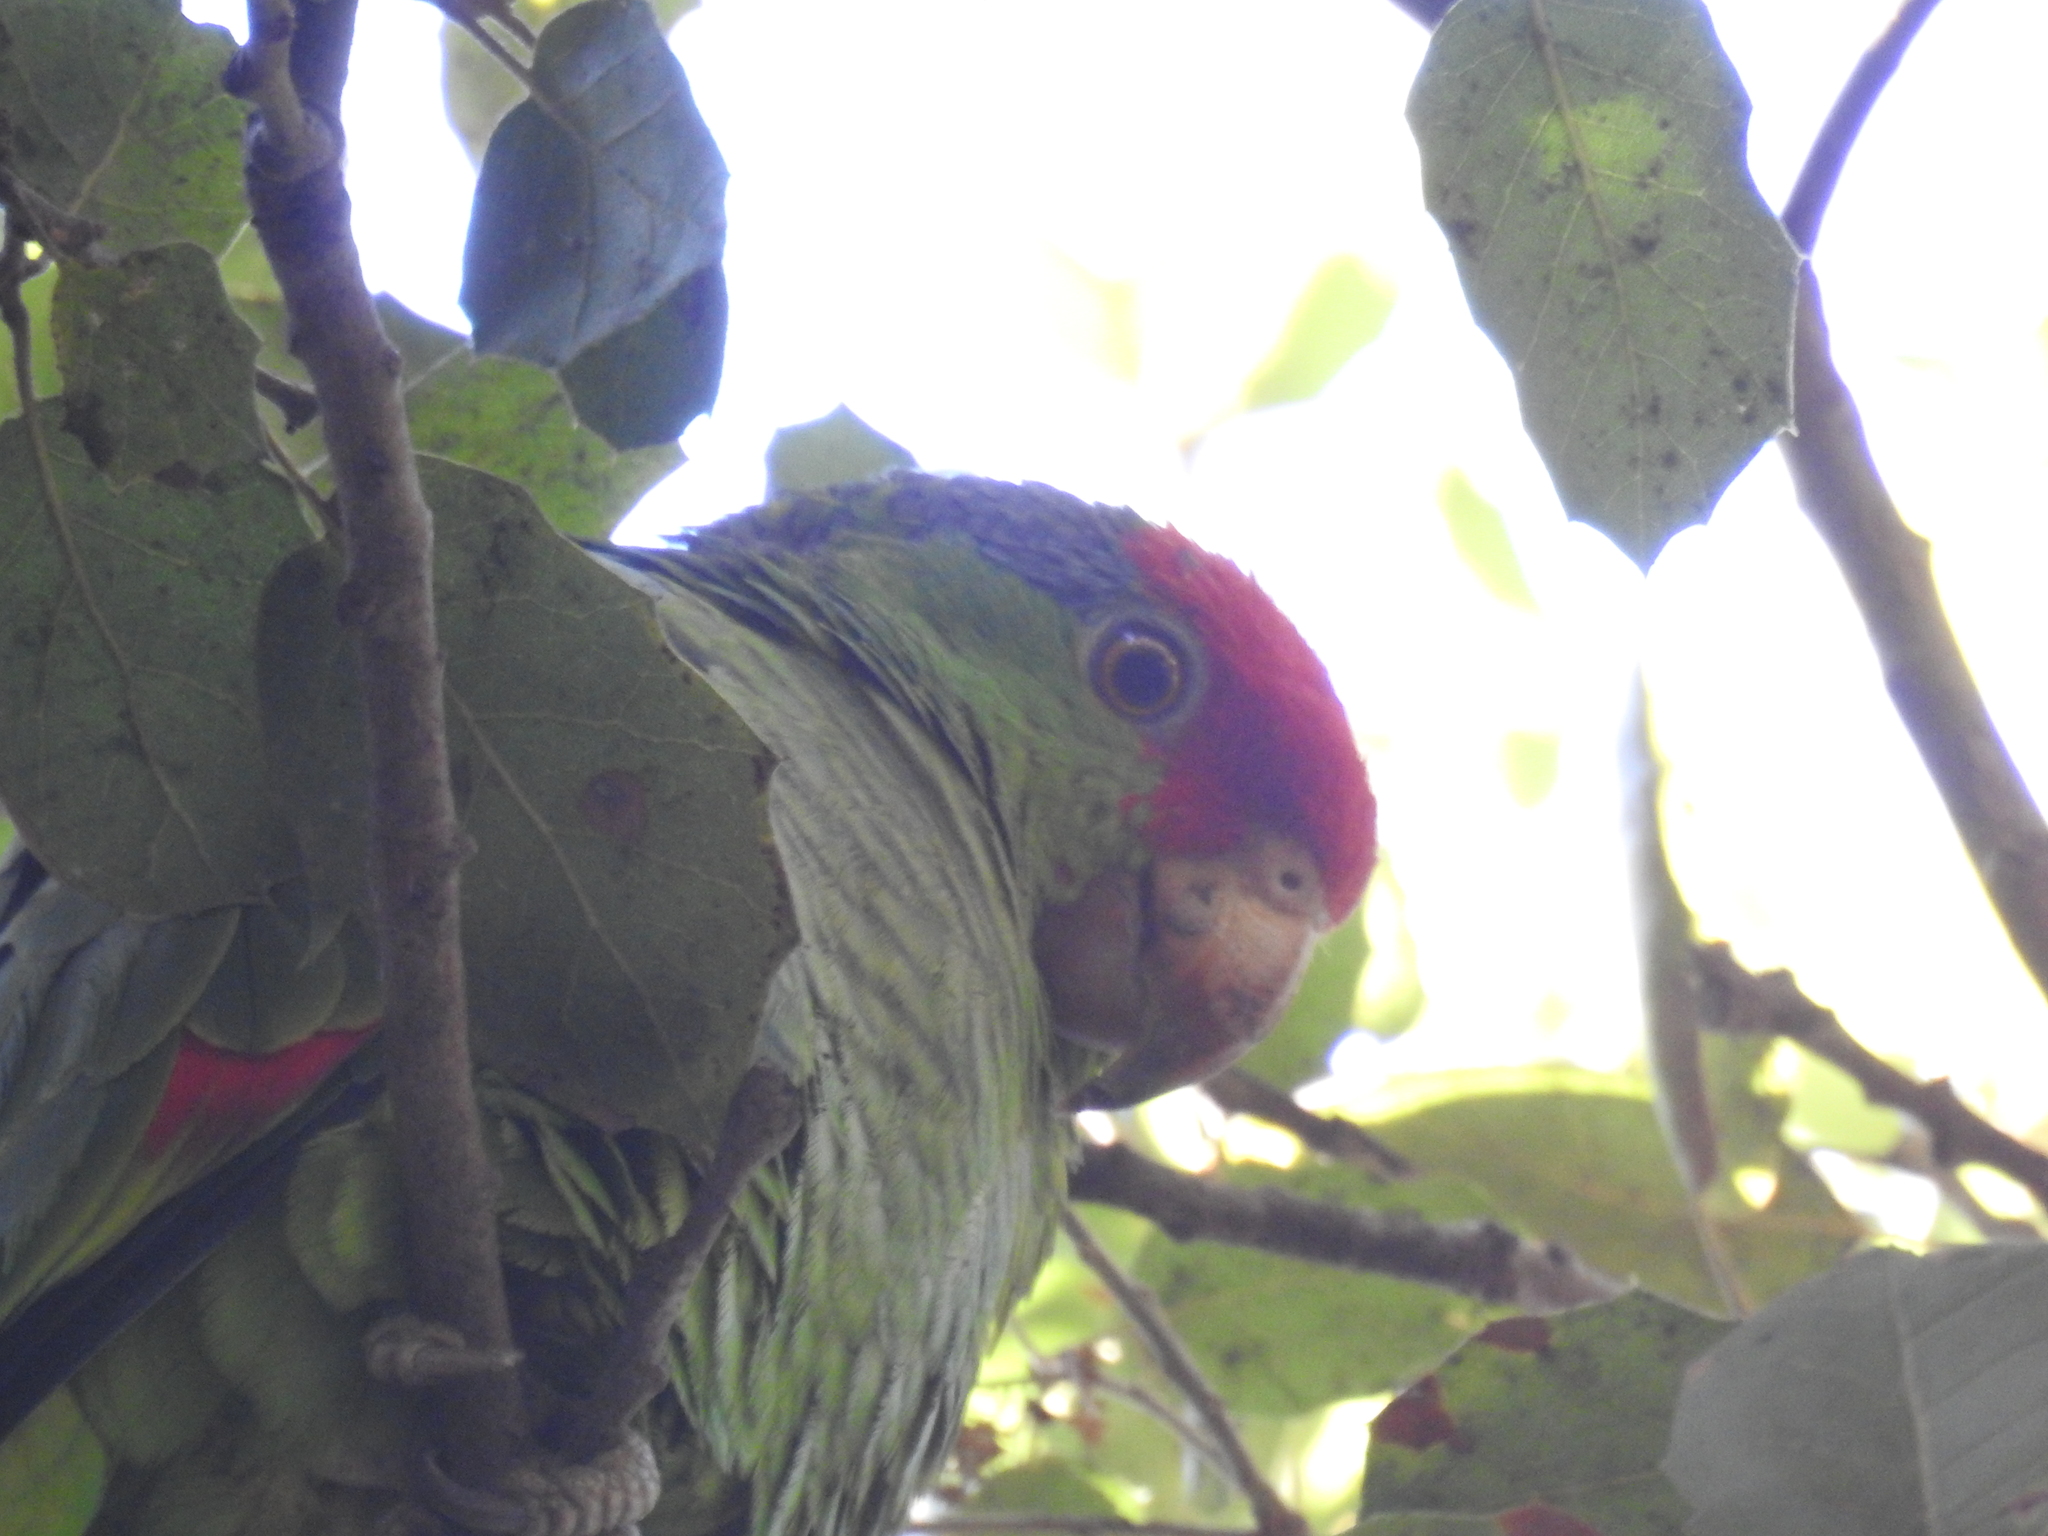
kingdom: Animalia
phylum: Chordata
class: Aves
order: Psittaciformes
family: Psittacidae
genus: Amazona
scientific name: Amazona viridigenalis
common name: Red-crowned amazon
